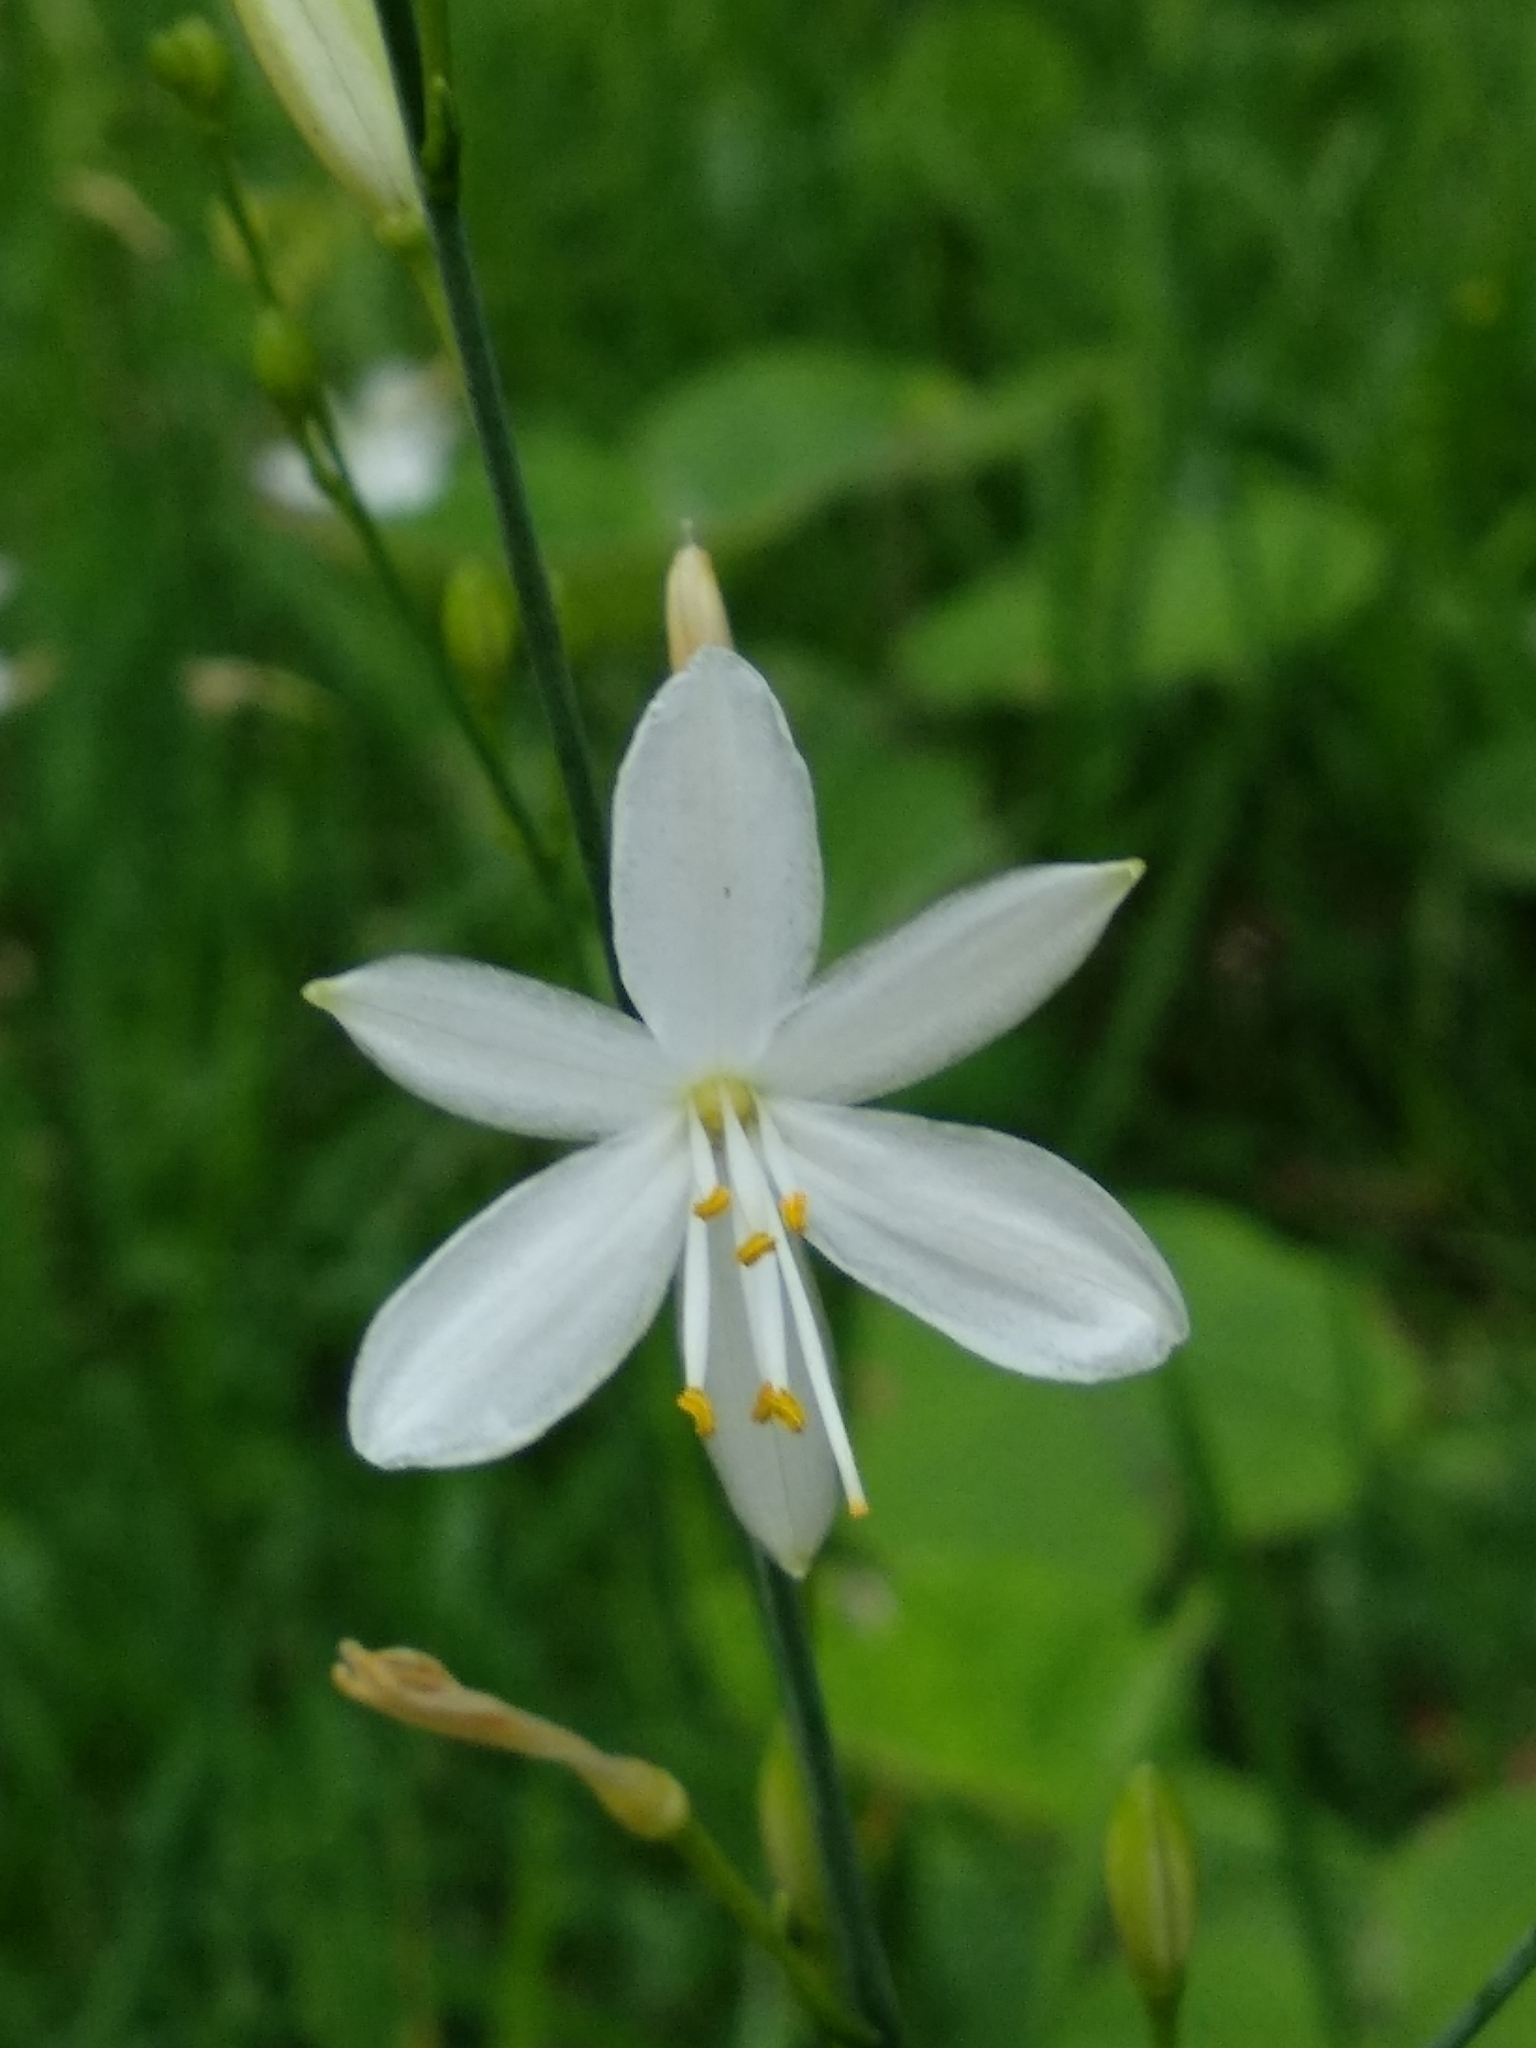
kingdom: Plantae
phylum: Tracheophyta
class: Liliopsida
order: Asparagales
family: Asparagaceae
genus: Anthericum
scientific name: Anthericum ramosum
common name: Branched st. bernard's-lily
